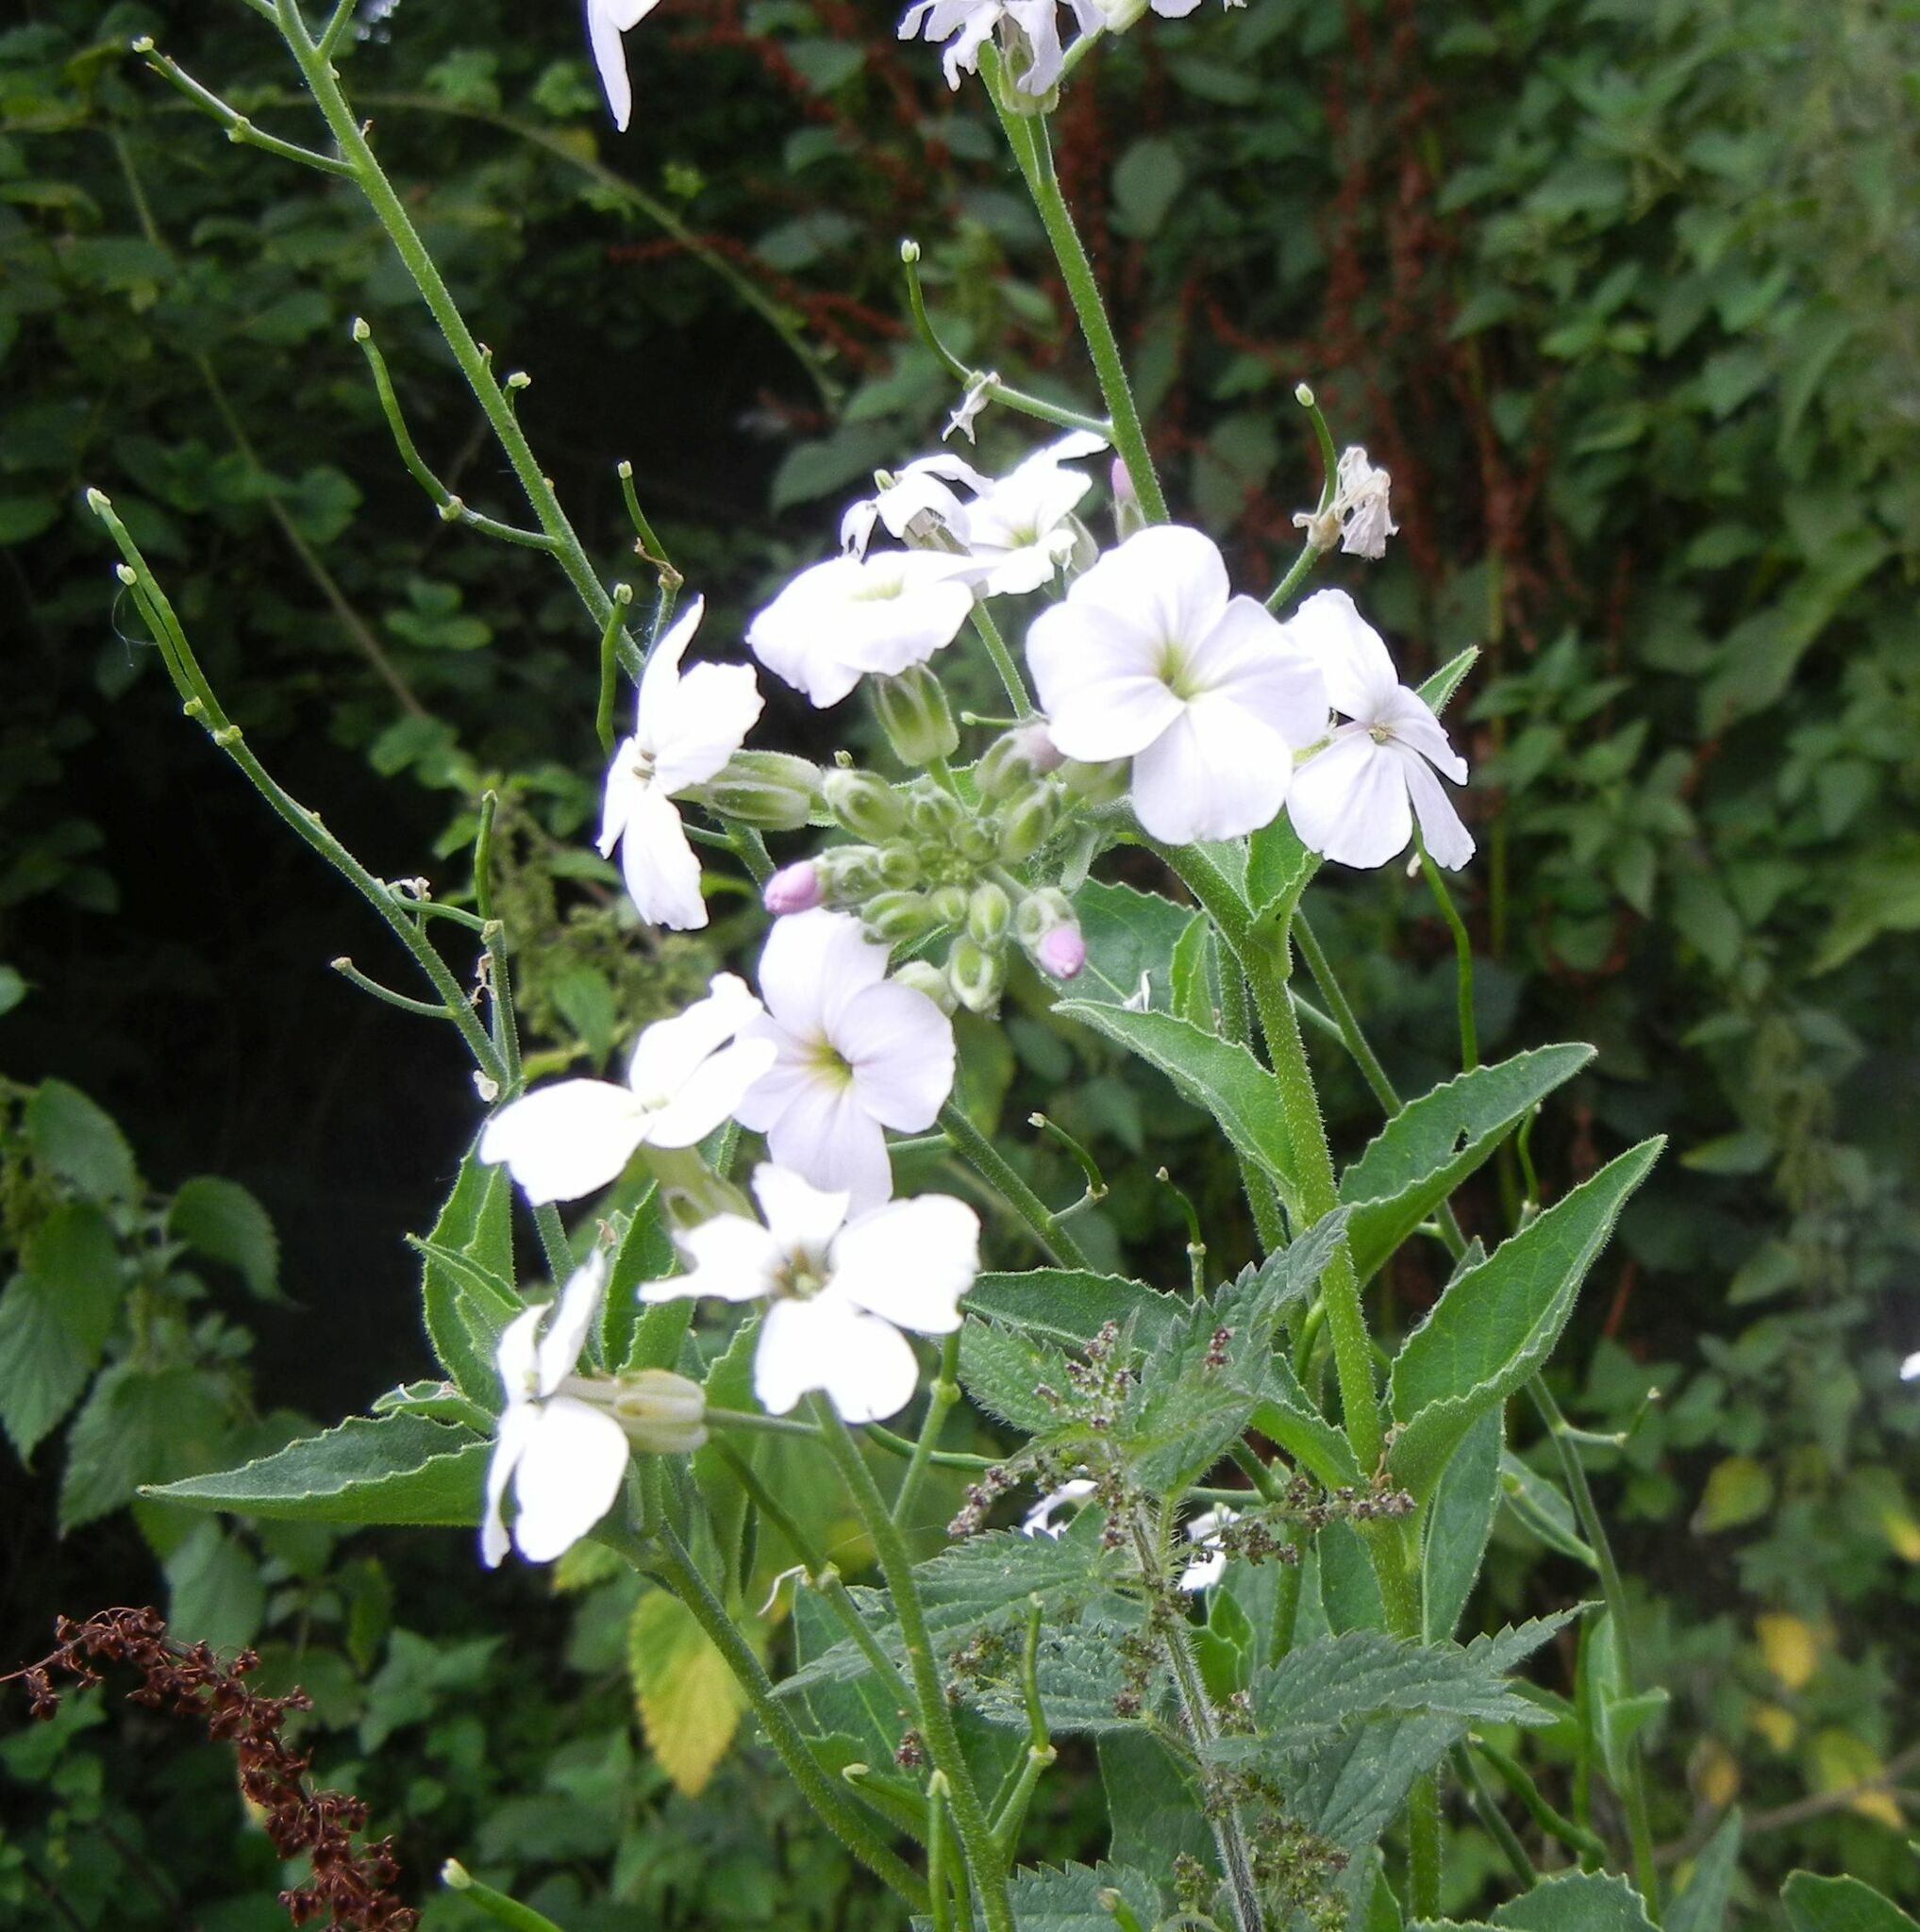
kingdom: Plantae
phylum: Tracheophyta
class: Magnoliopsida
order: Brassicales
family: Brassicaceae
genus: Hesperis
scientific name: Hesperis matronalis
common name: Dame's-violet
